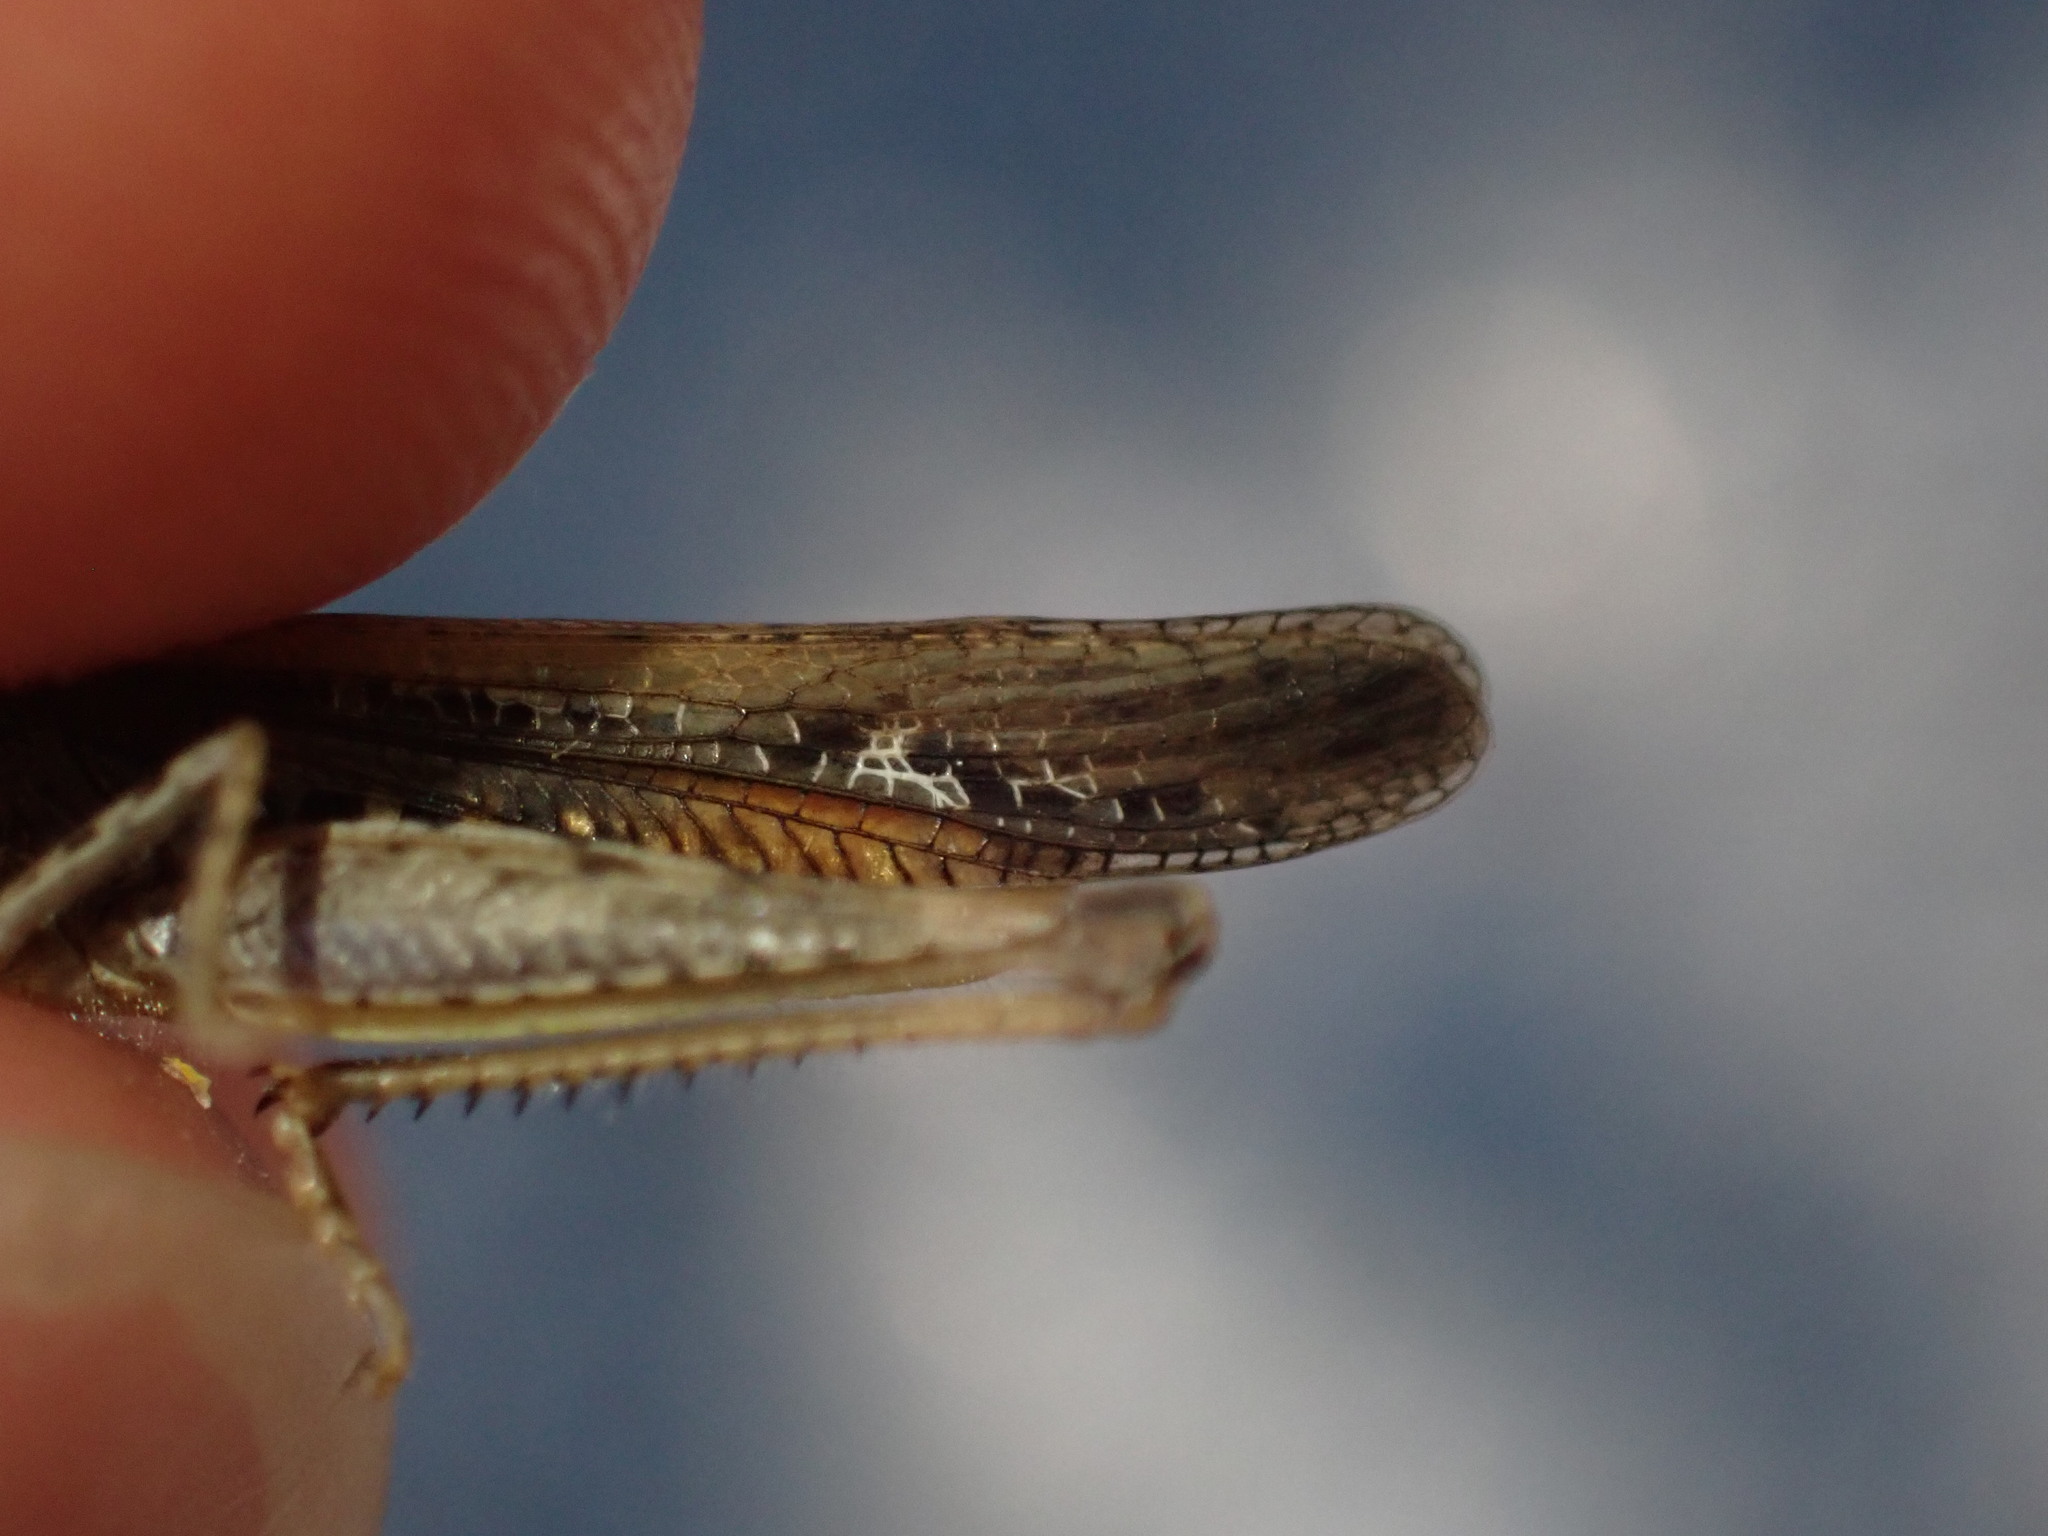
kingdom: Animalia
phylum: Arthropoda
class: Insecta
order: Orthoptera
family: Acrididae
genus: Chorthippus
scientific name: Chorthippus brunneus
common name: Field grasshopper
